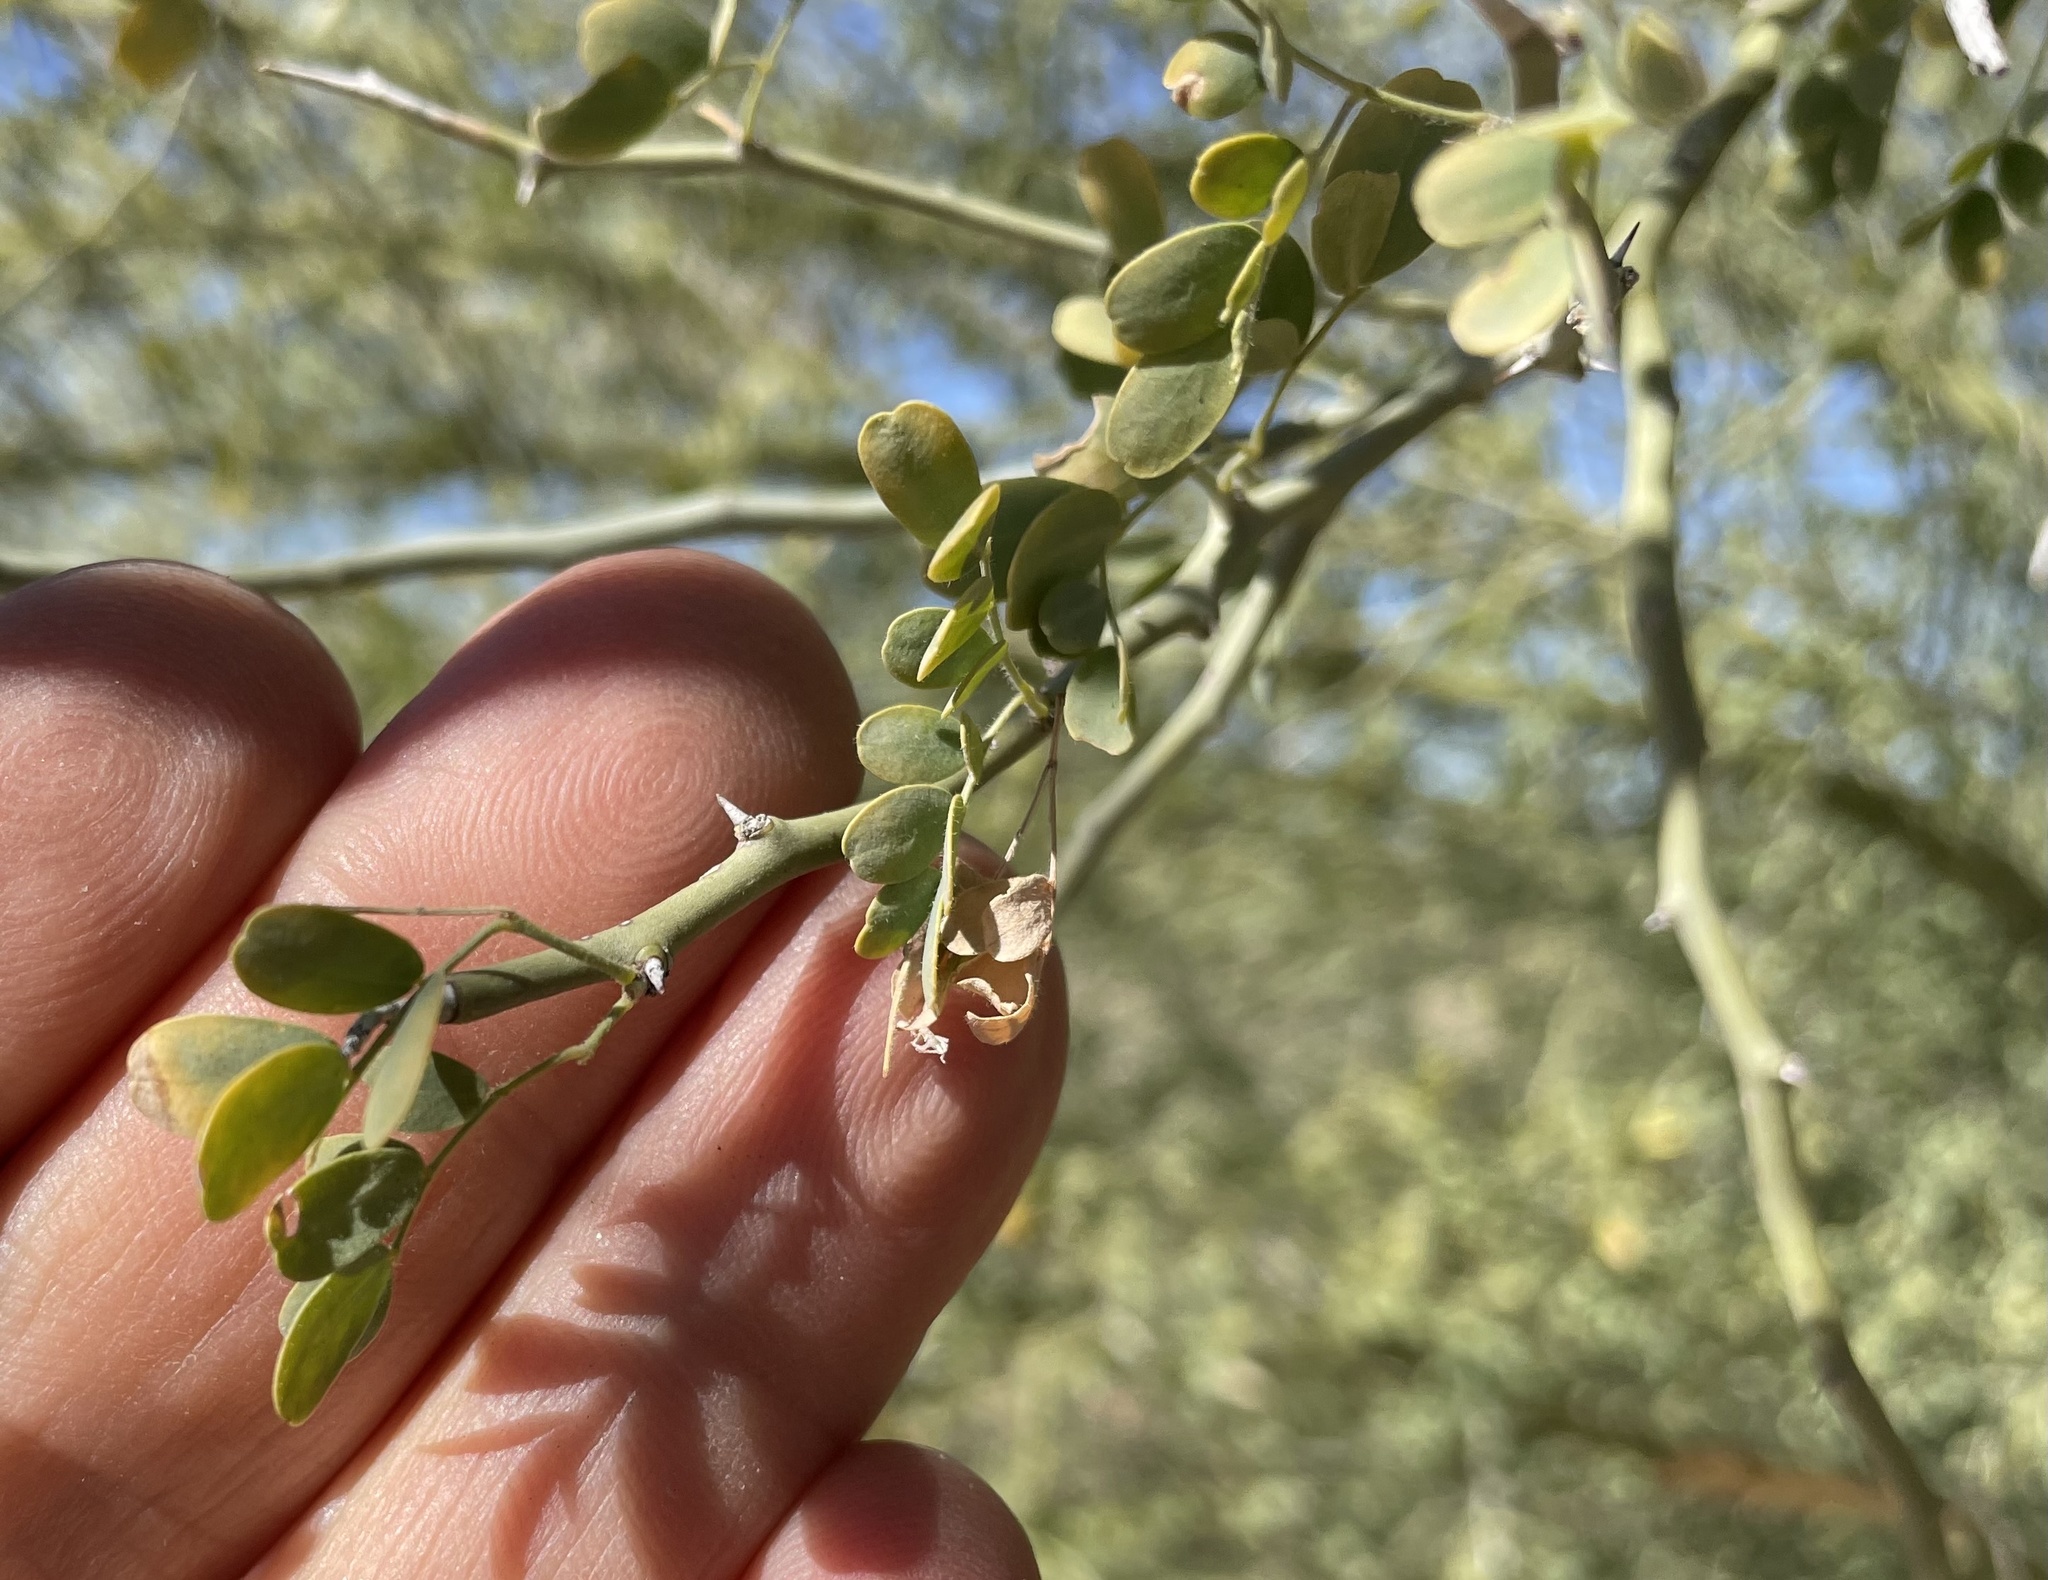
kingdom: Plantae
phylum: Tracheophyta
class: Magnoliopsida
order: Fabales
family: Fabaceae
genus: Parkinsonia
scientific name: Parkinsonia florida
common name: Blue paloverde
